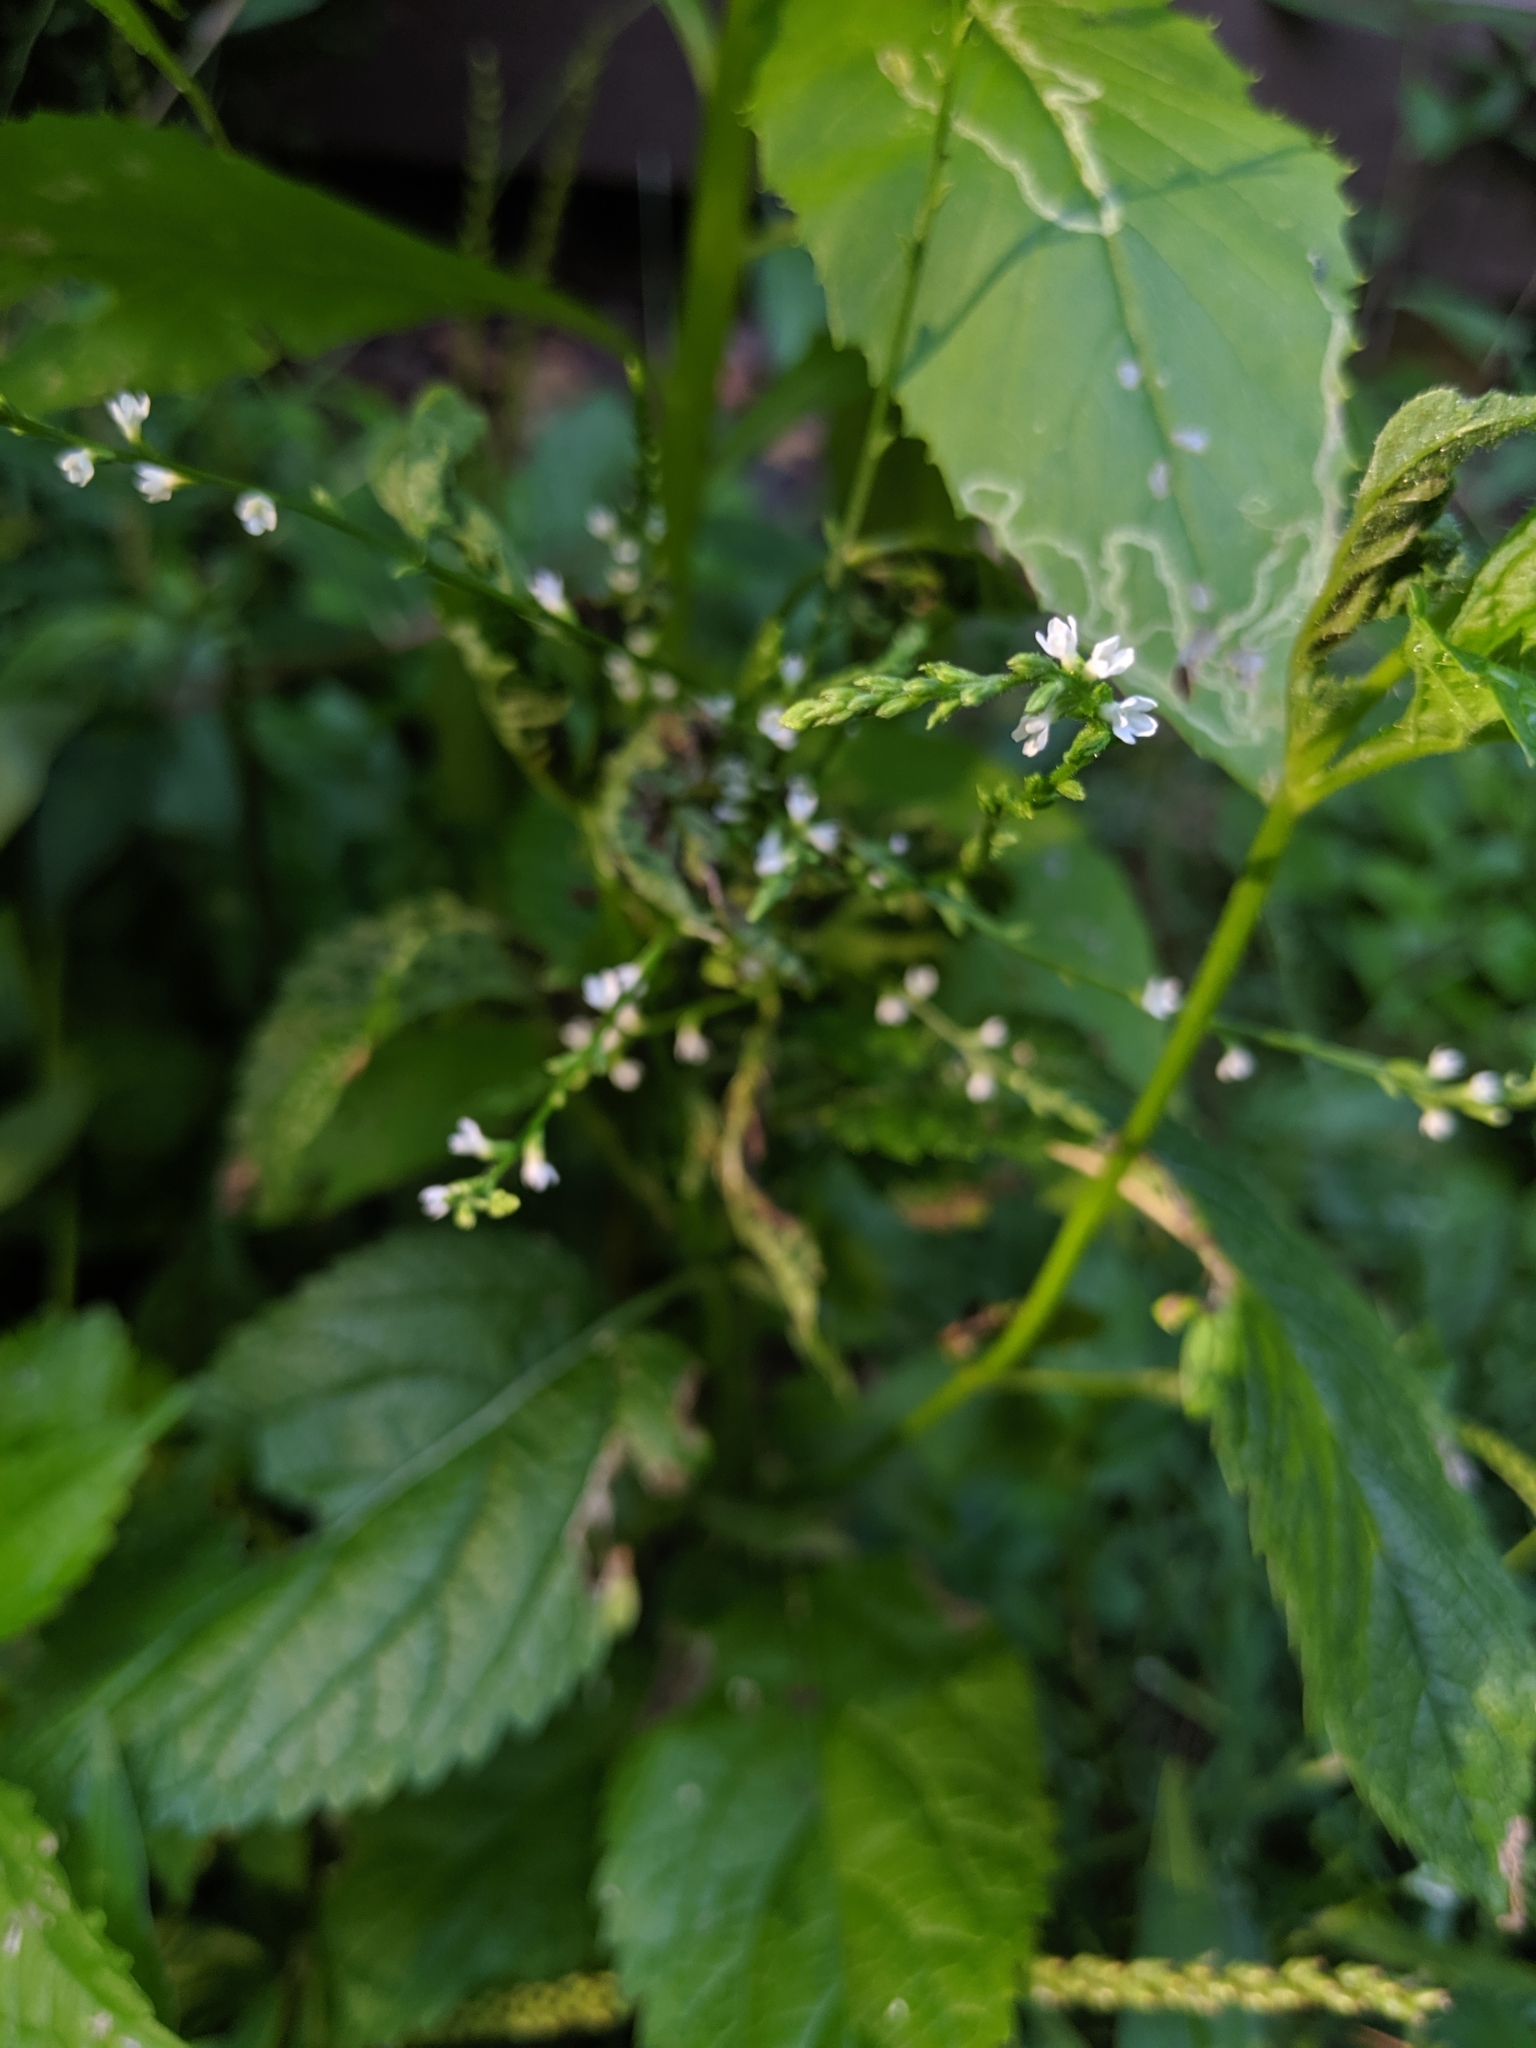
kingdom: Plantae
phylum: Tracheophyta
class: Magnoliopsida
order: Lamiales
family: Verbenaceae
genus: Verbena
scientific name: Verbena urticifolia
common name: Nettle-leaved vervain
